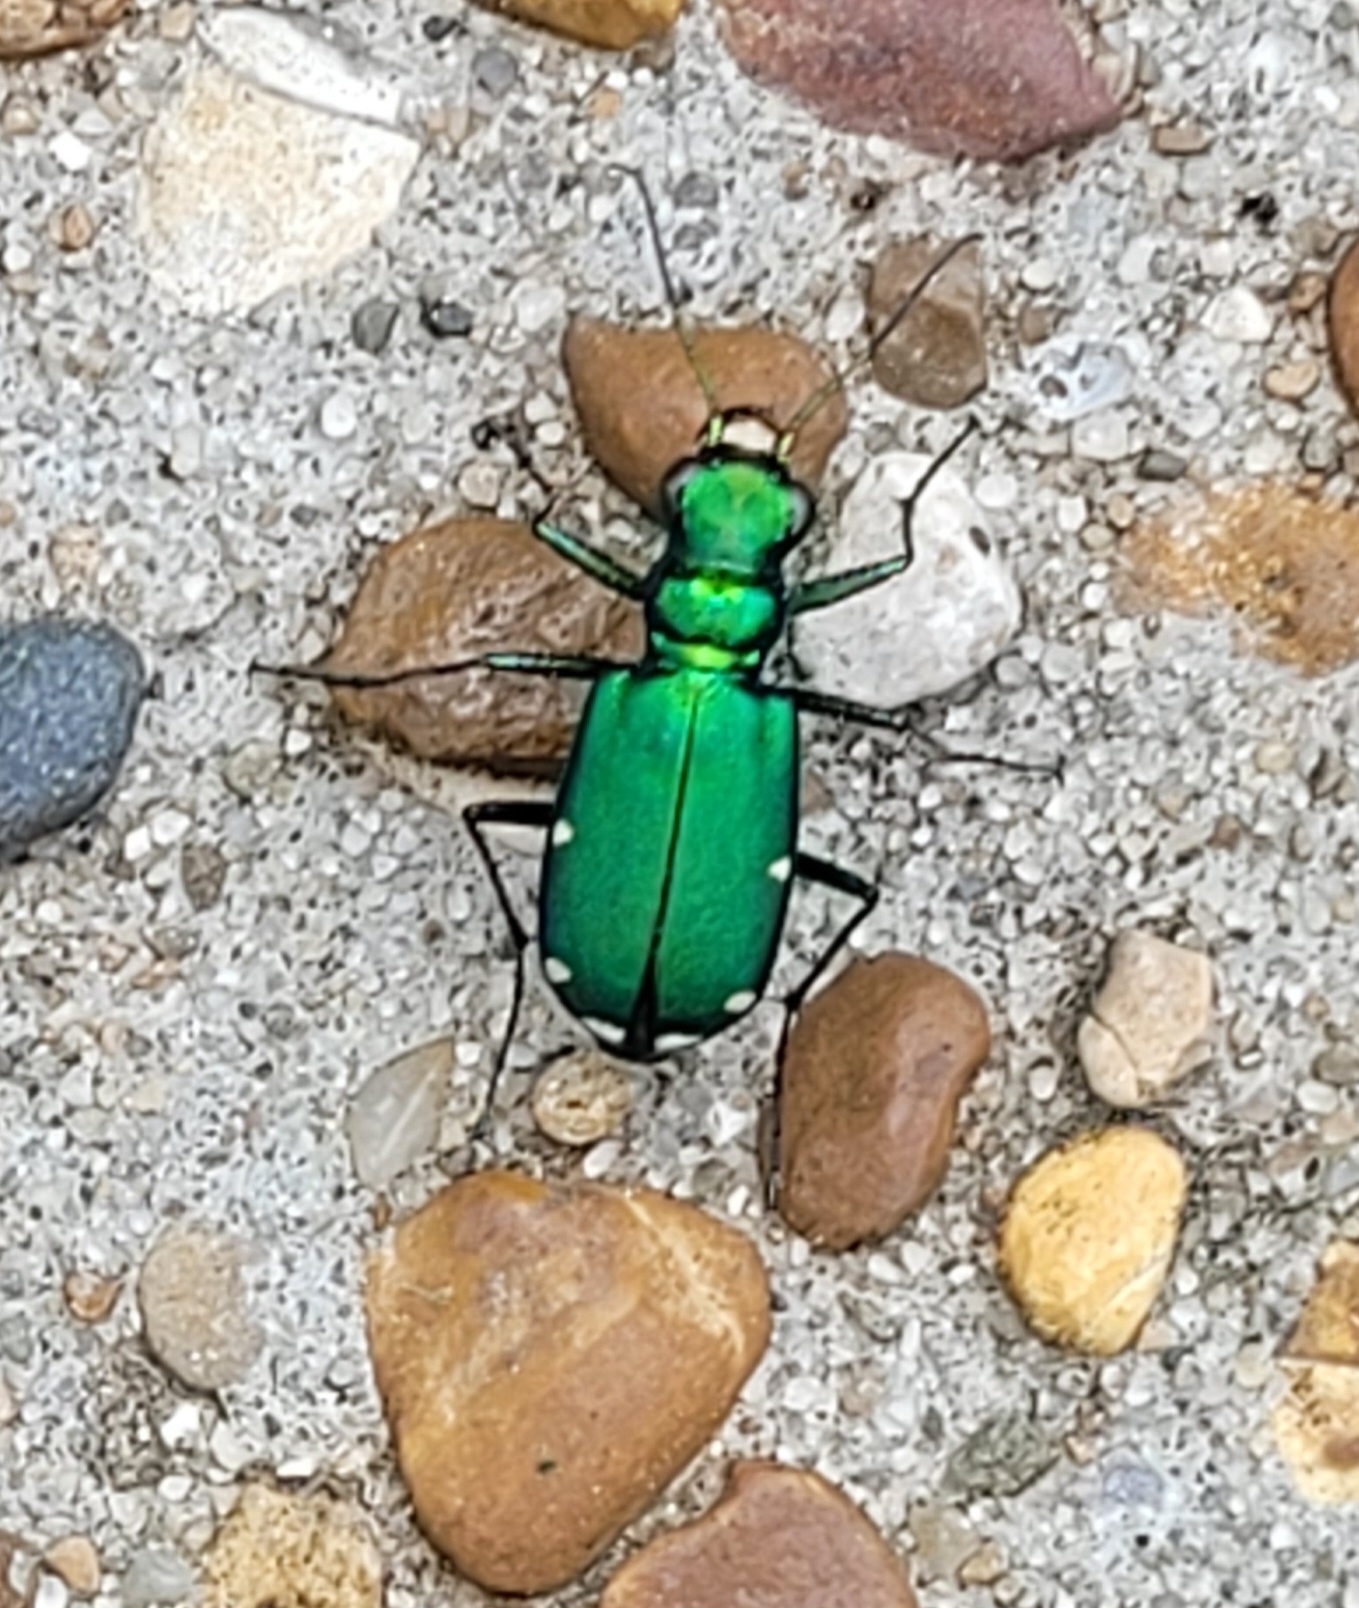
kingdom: Animalia
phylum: Arthropoda
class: Insecta
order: Coleoptera
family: Carabidae
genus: Cicindela
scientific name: Cicindela sexguttata
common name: Six-spotted tiger beetle
